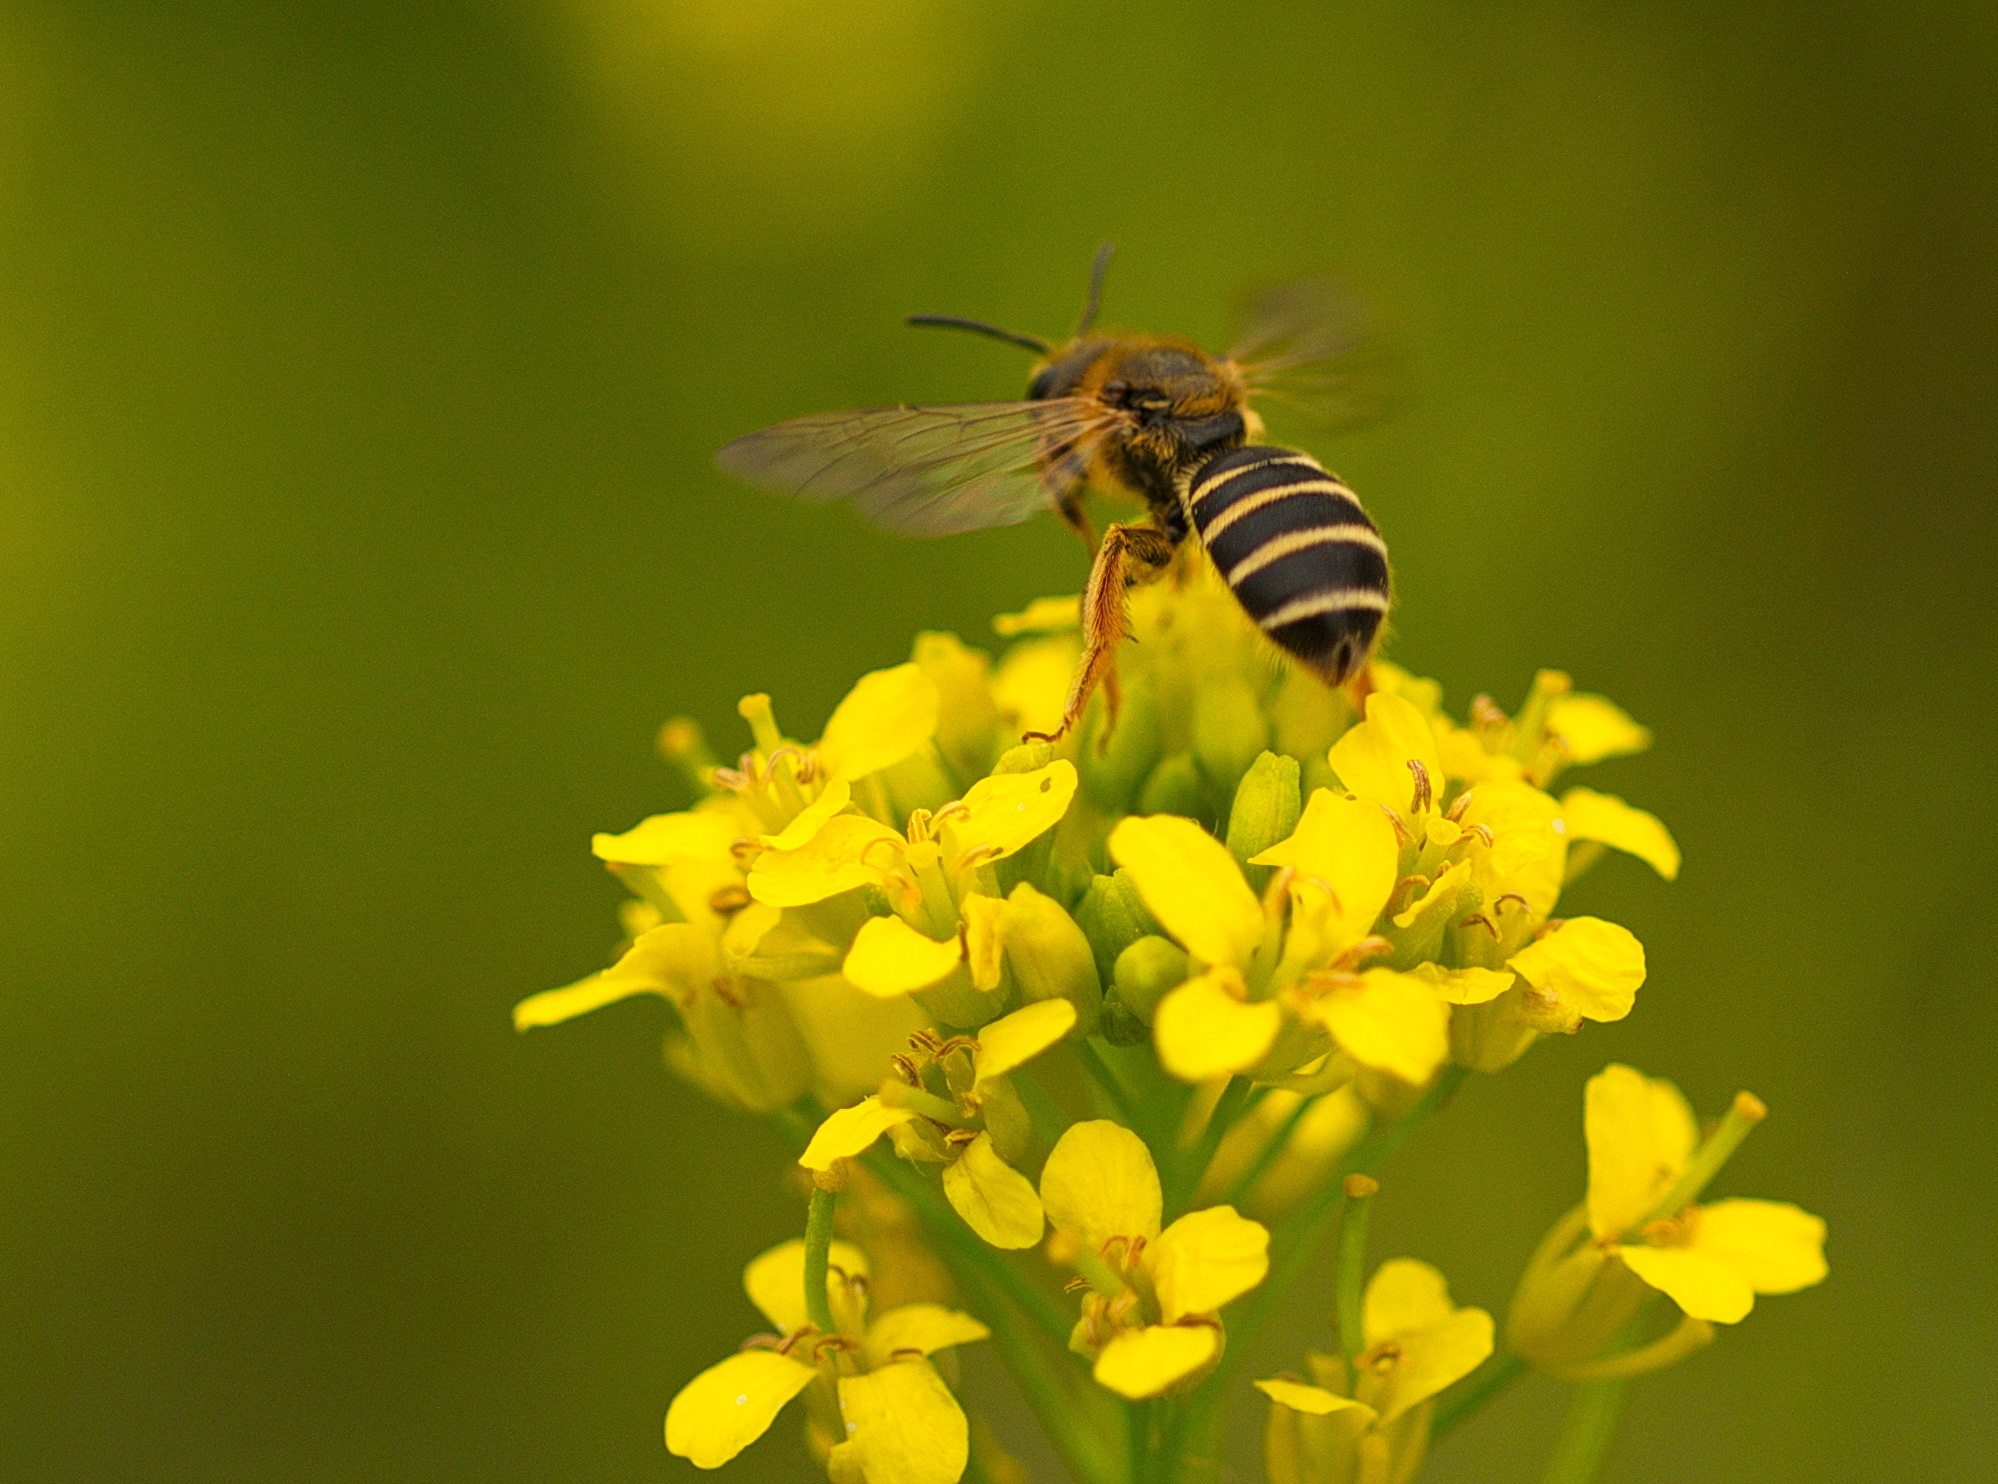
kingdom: Animalia
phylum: Arthropoda
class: Insecta
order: Hymenoptera
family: Halictidae
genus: Halictus
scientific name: Halictus rubicundus
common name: Orange-legged furrow bee
